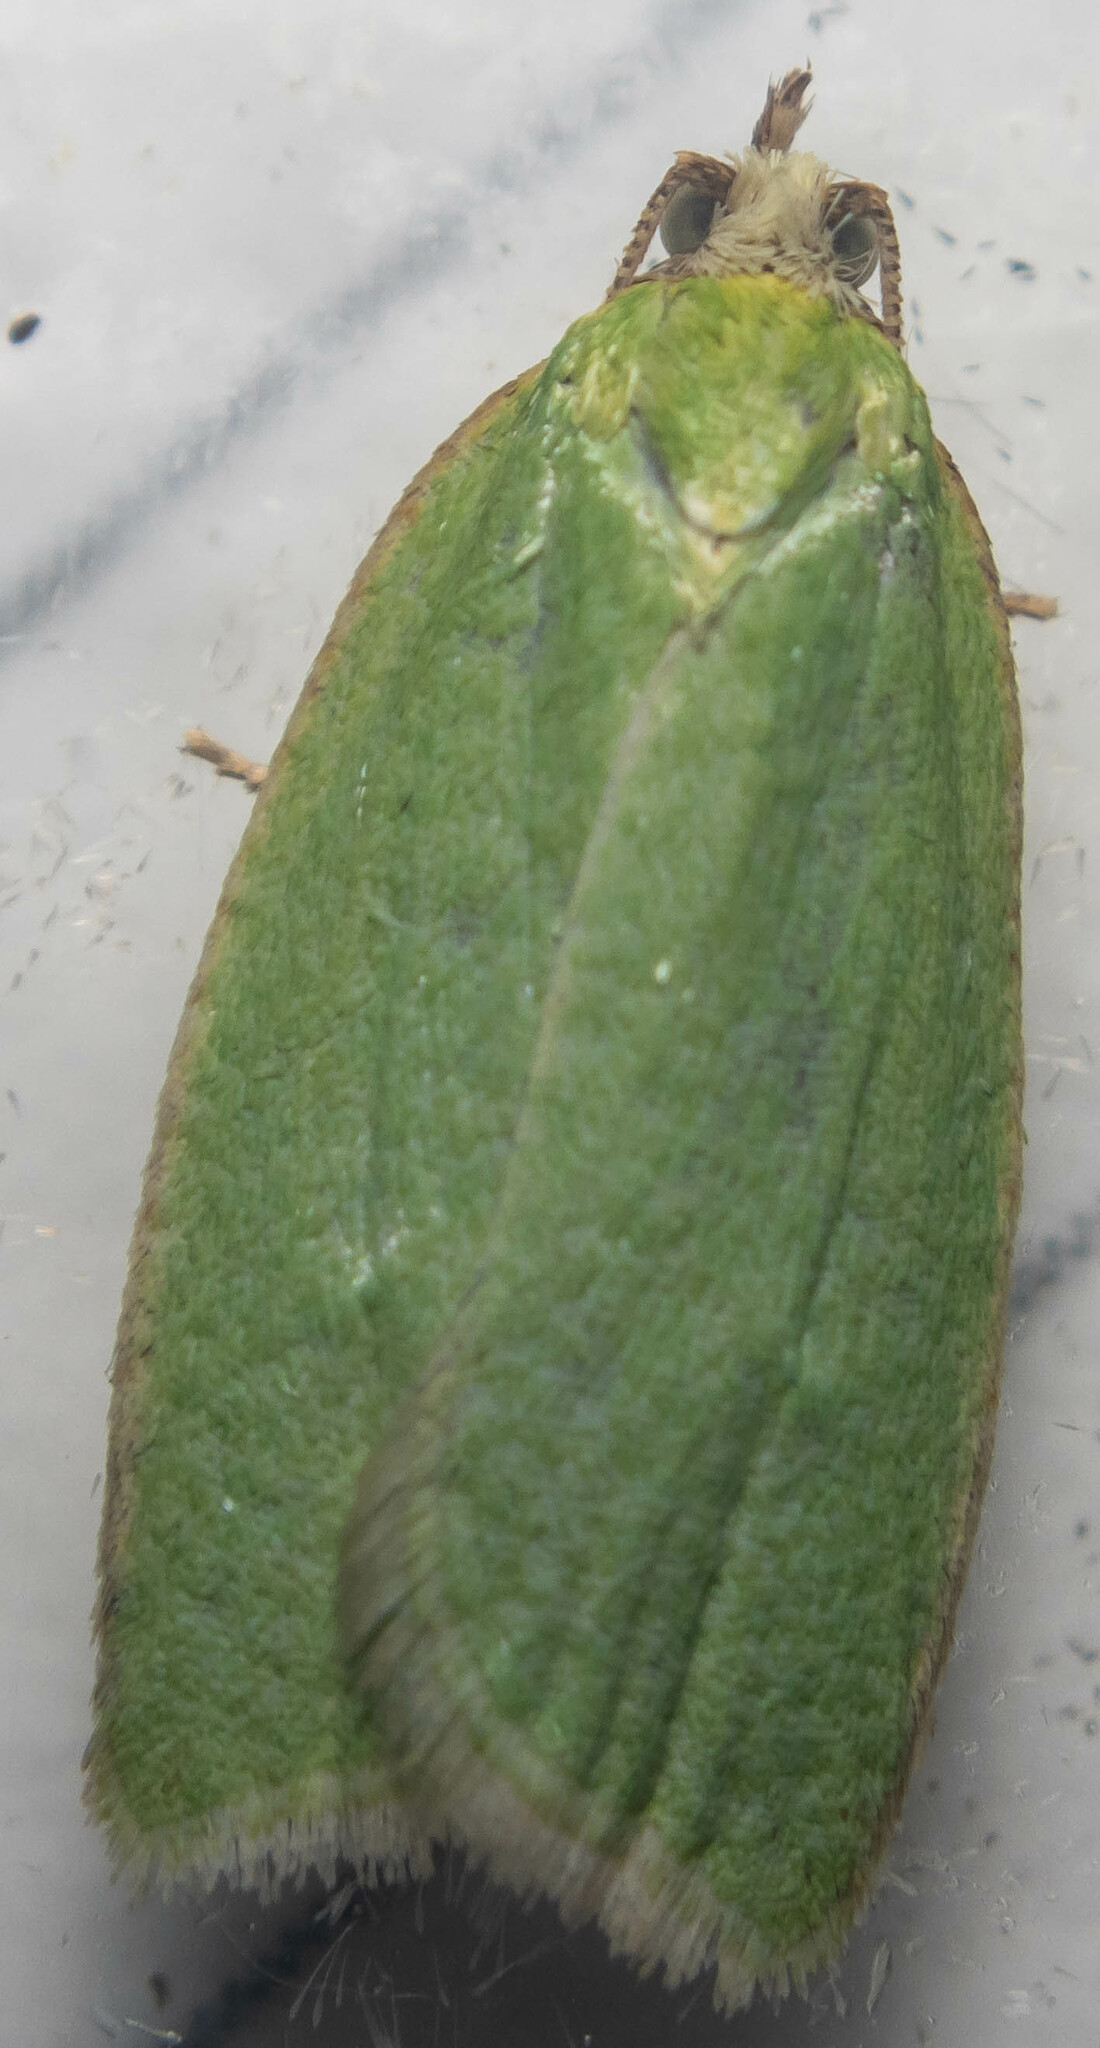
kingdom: Animalia
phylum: Arthropoda
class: Insecta
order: Lepidoptera
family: Tortricidae
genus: Tortrix
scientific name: Tortrix viridana
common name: Green oak tortrix
